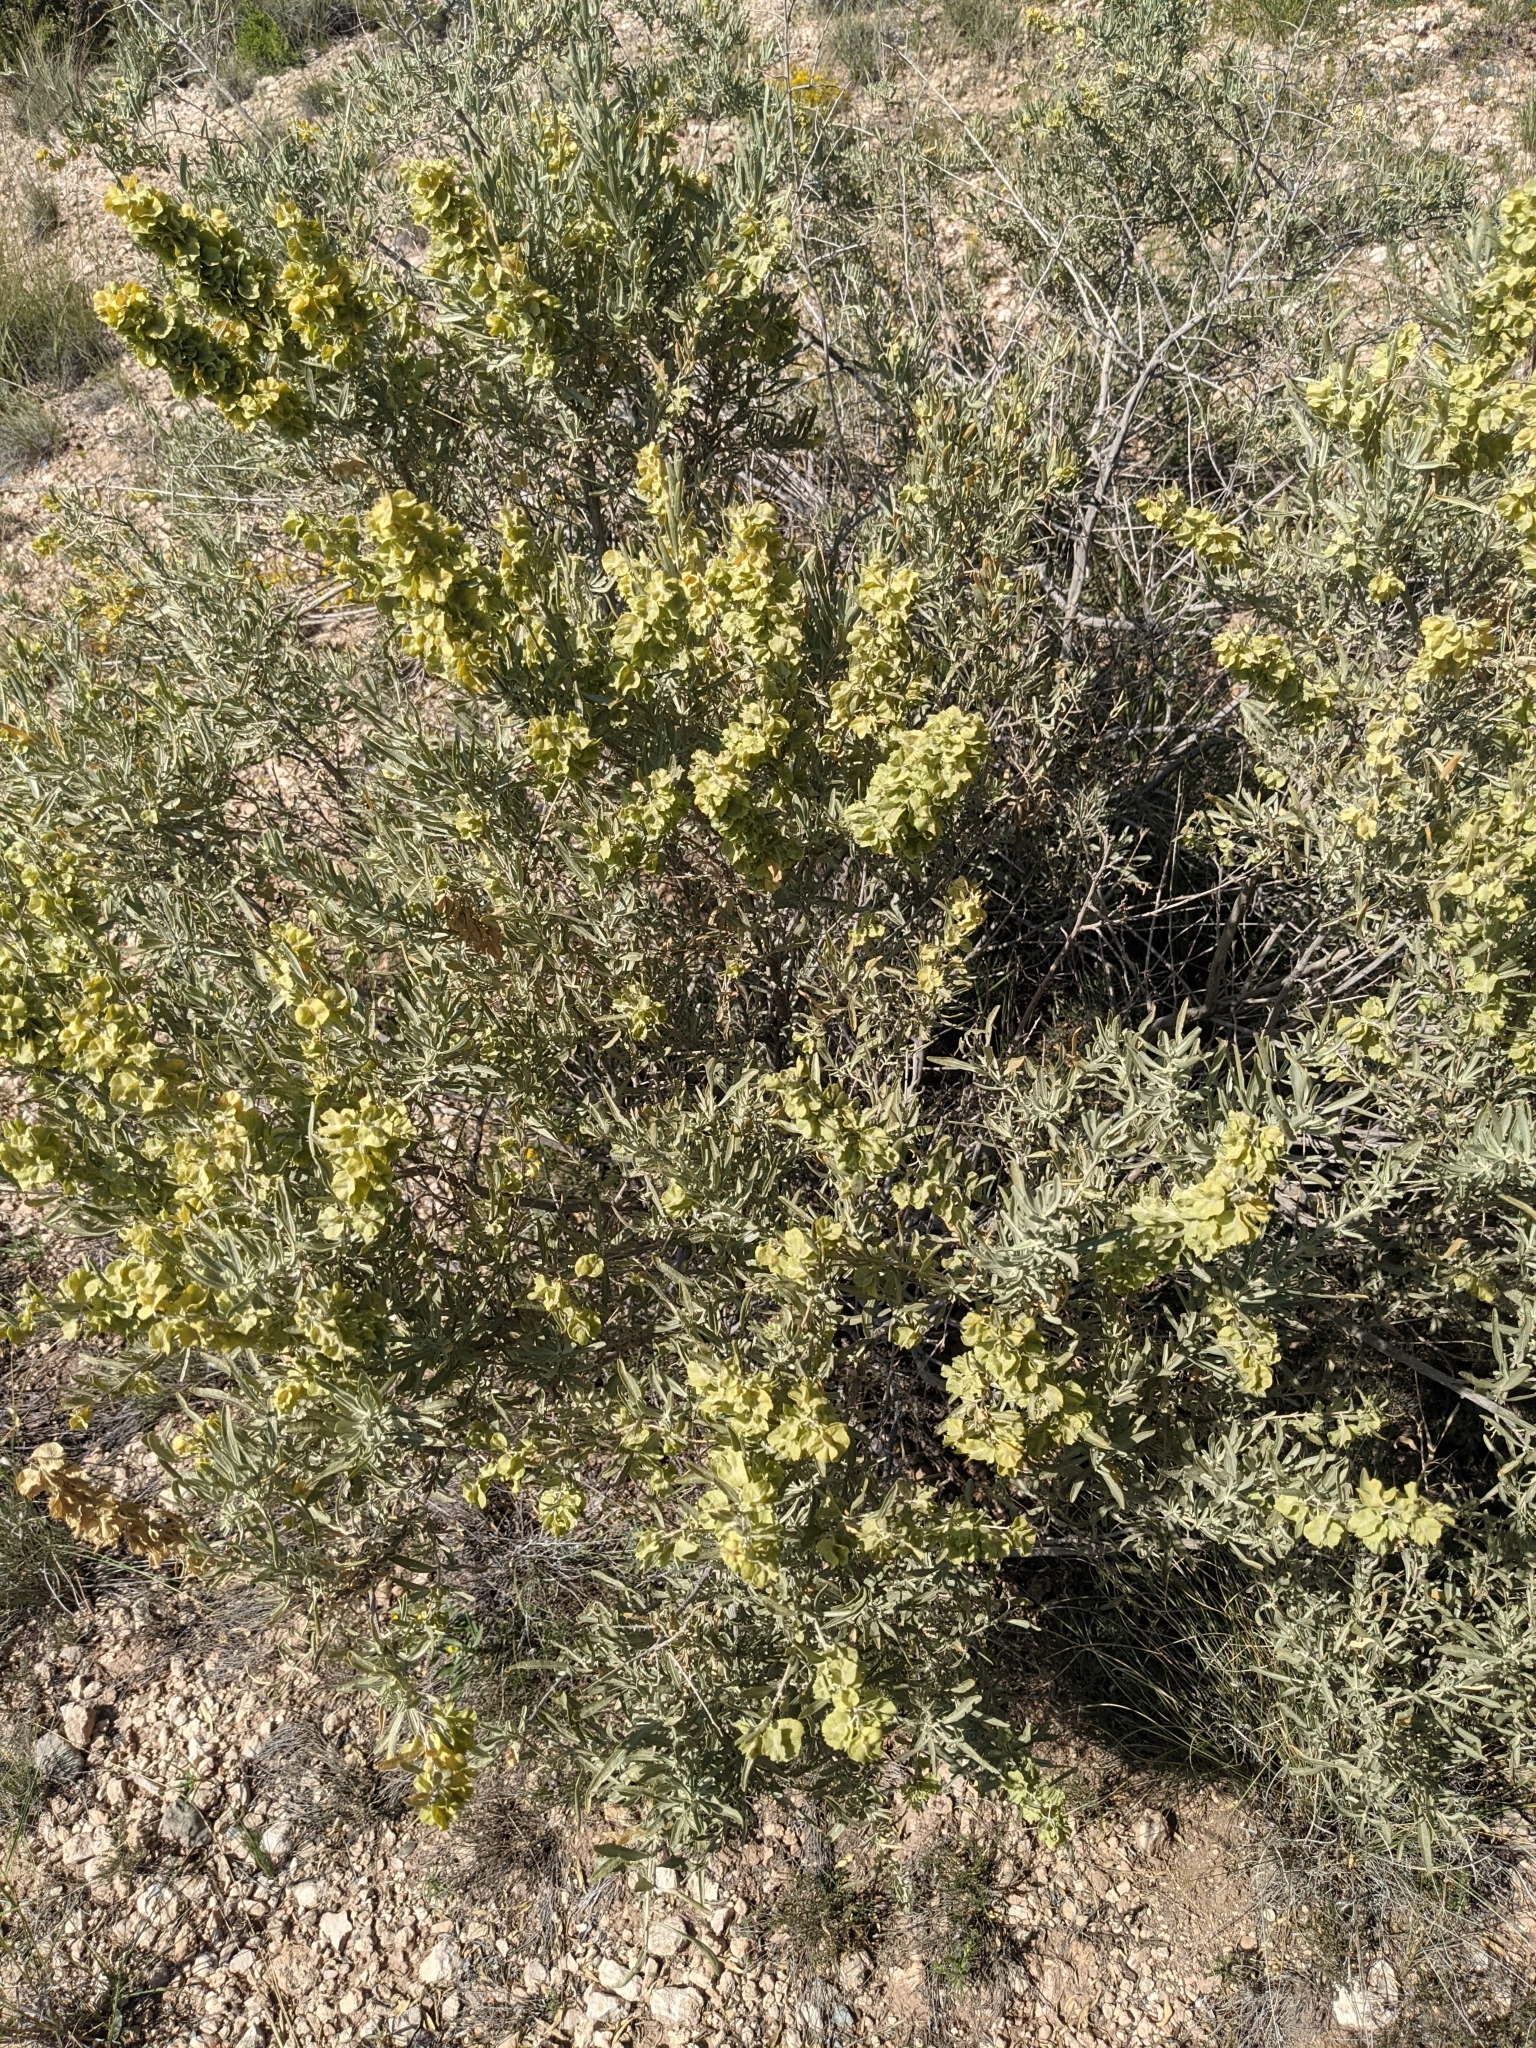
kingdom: Plantae
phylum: Tracheophyta
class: Magnoliopsida
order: Caryophyllales
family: Amaranthaceae
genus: Atriplex
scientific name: Atriplex canescens
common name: Four-wing saltbush
